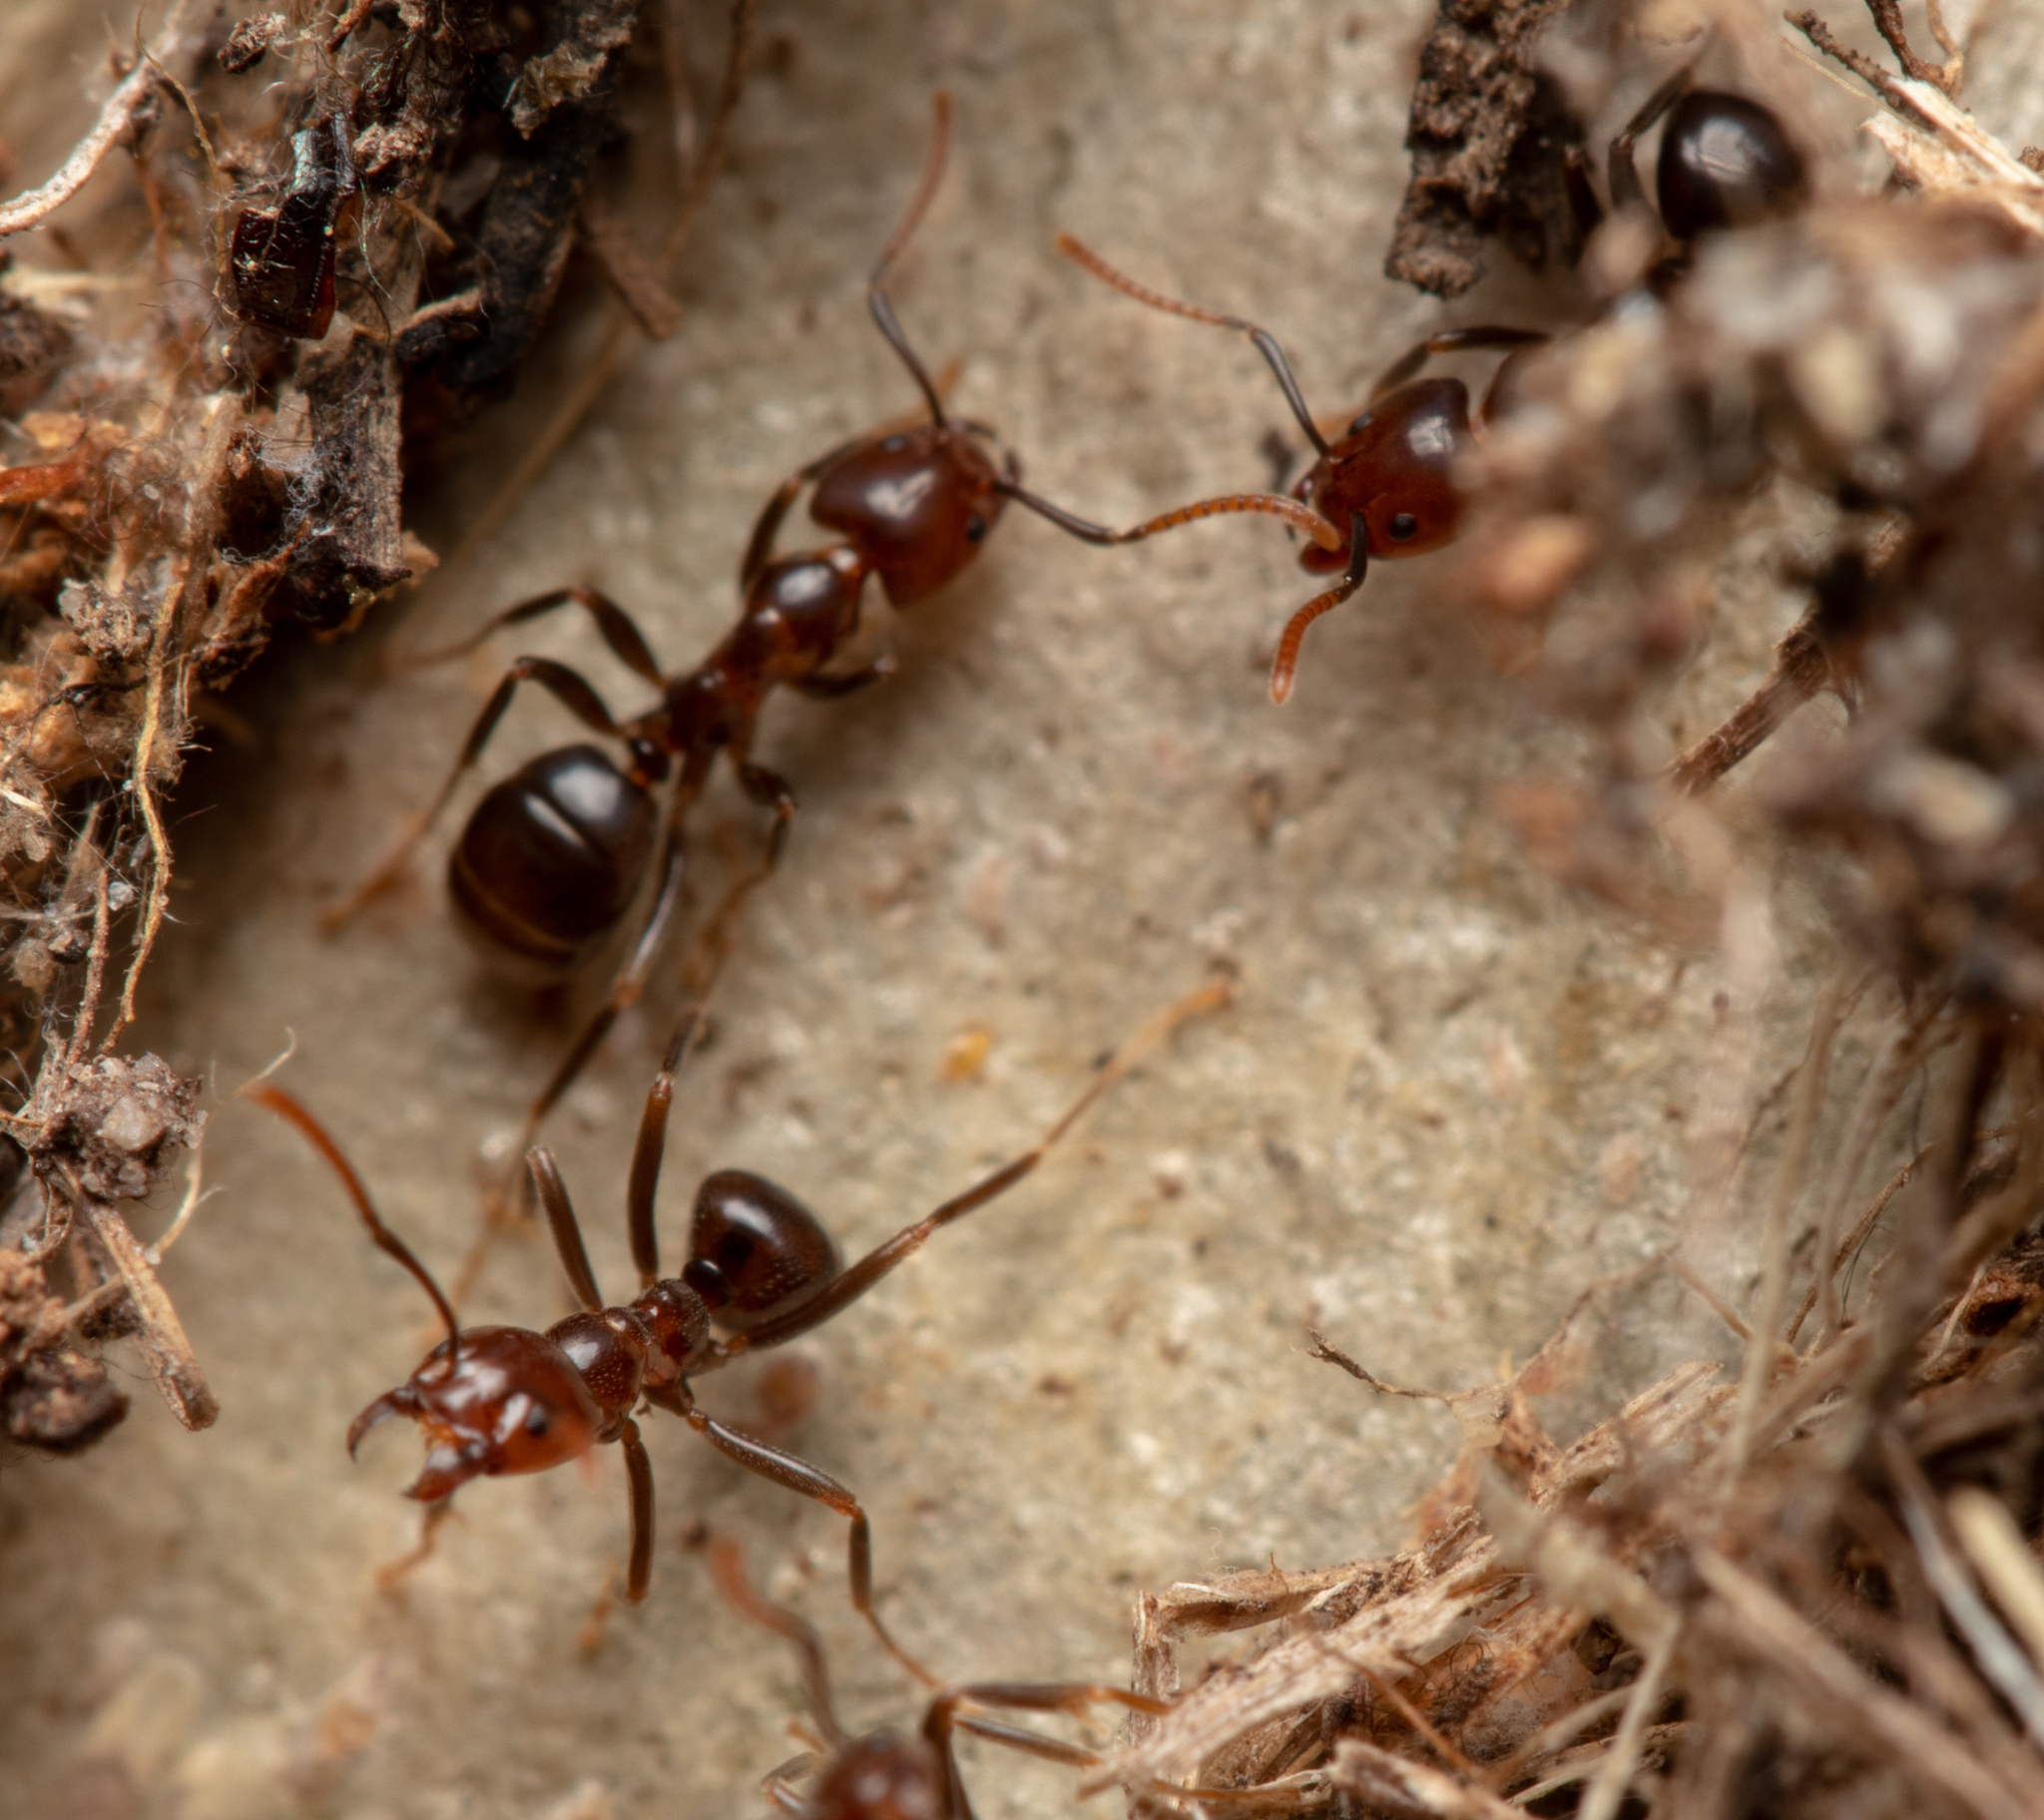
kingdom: Animalia
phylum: Arthropoda
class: Insecta
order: Hymenoptera
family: Formicidae
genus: Papyrius
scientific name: Papyrius nitidus
